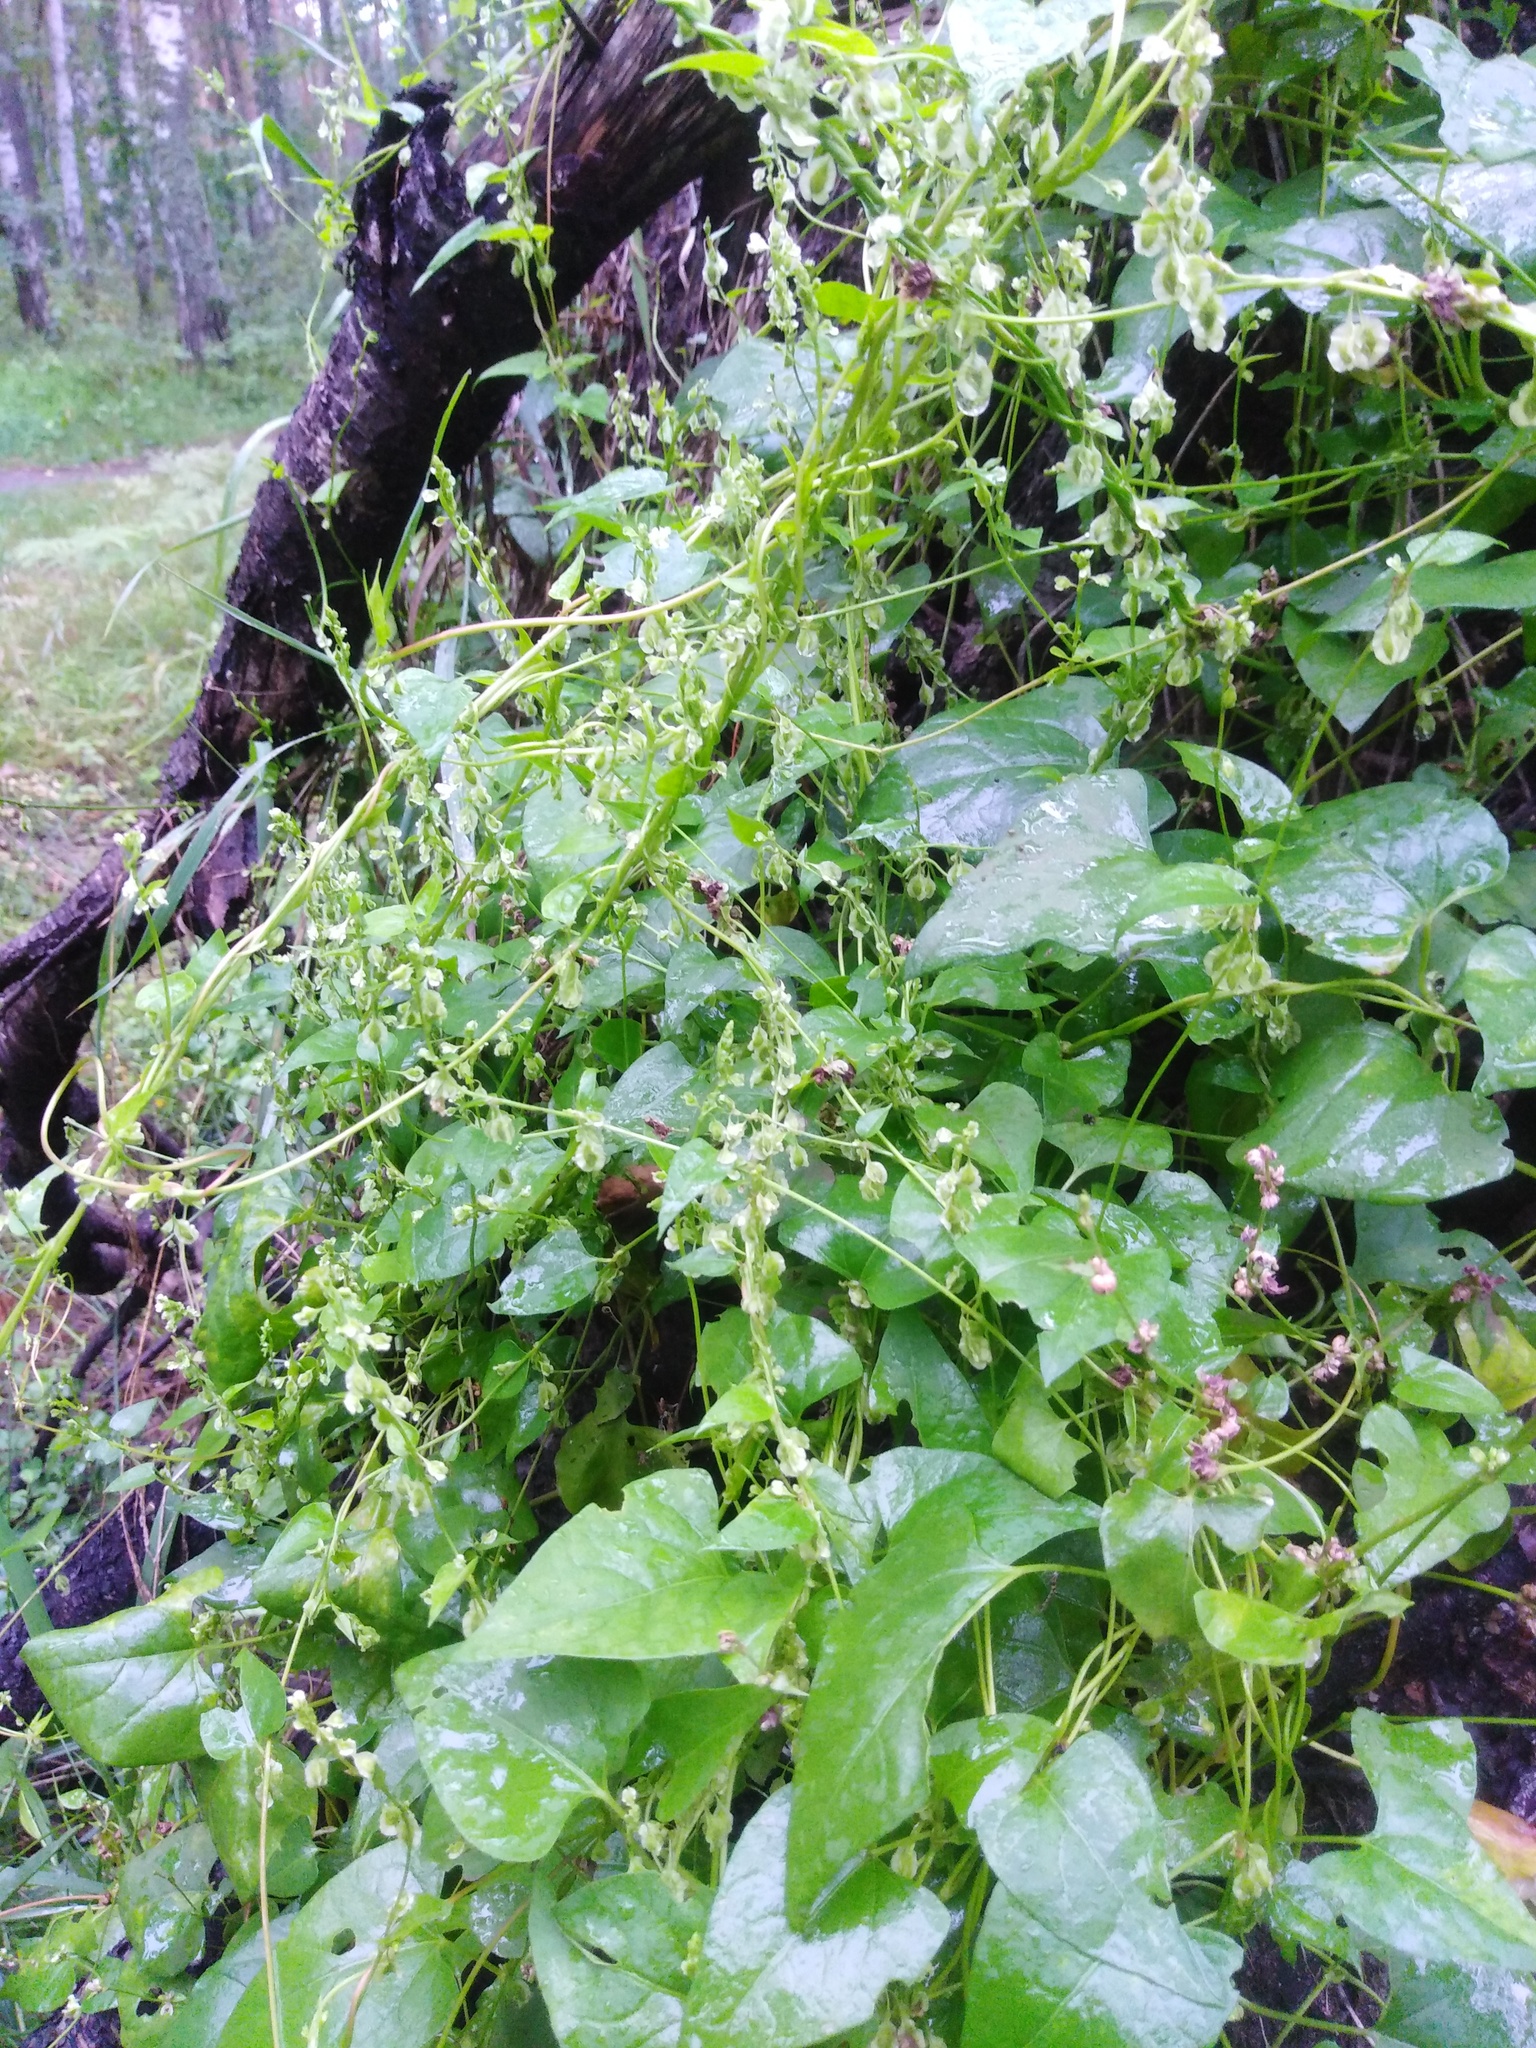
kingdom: Plantae
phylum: Tracheophyta
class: Magnoliopsida
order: Caryophyllales
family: Polygonaceae
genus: Fallopia
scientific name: Fallopia dumetorum
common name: Copse-bindweed
